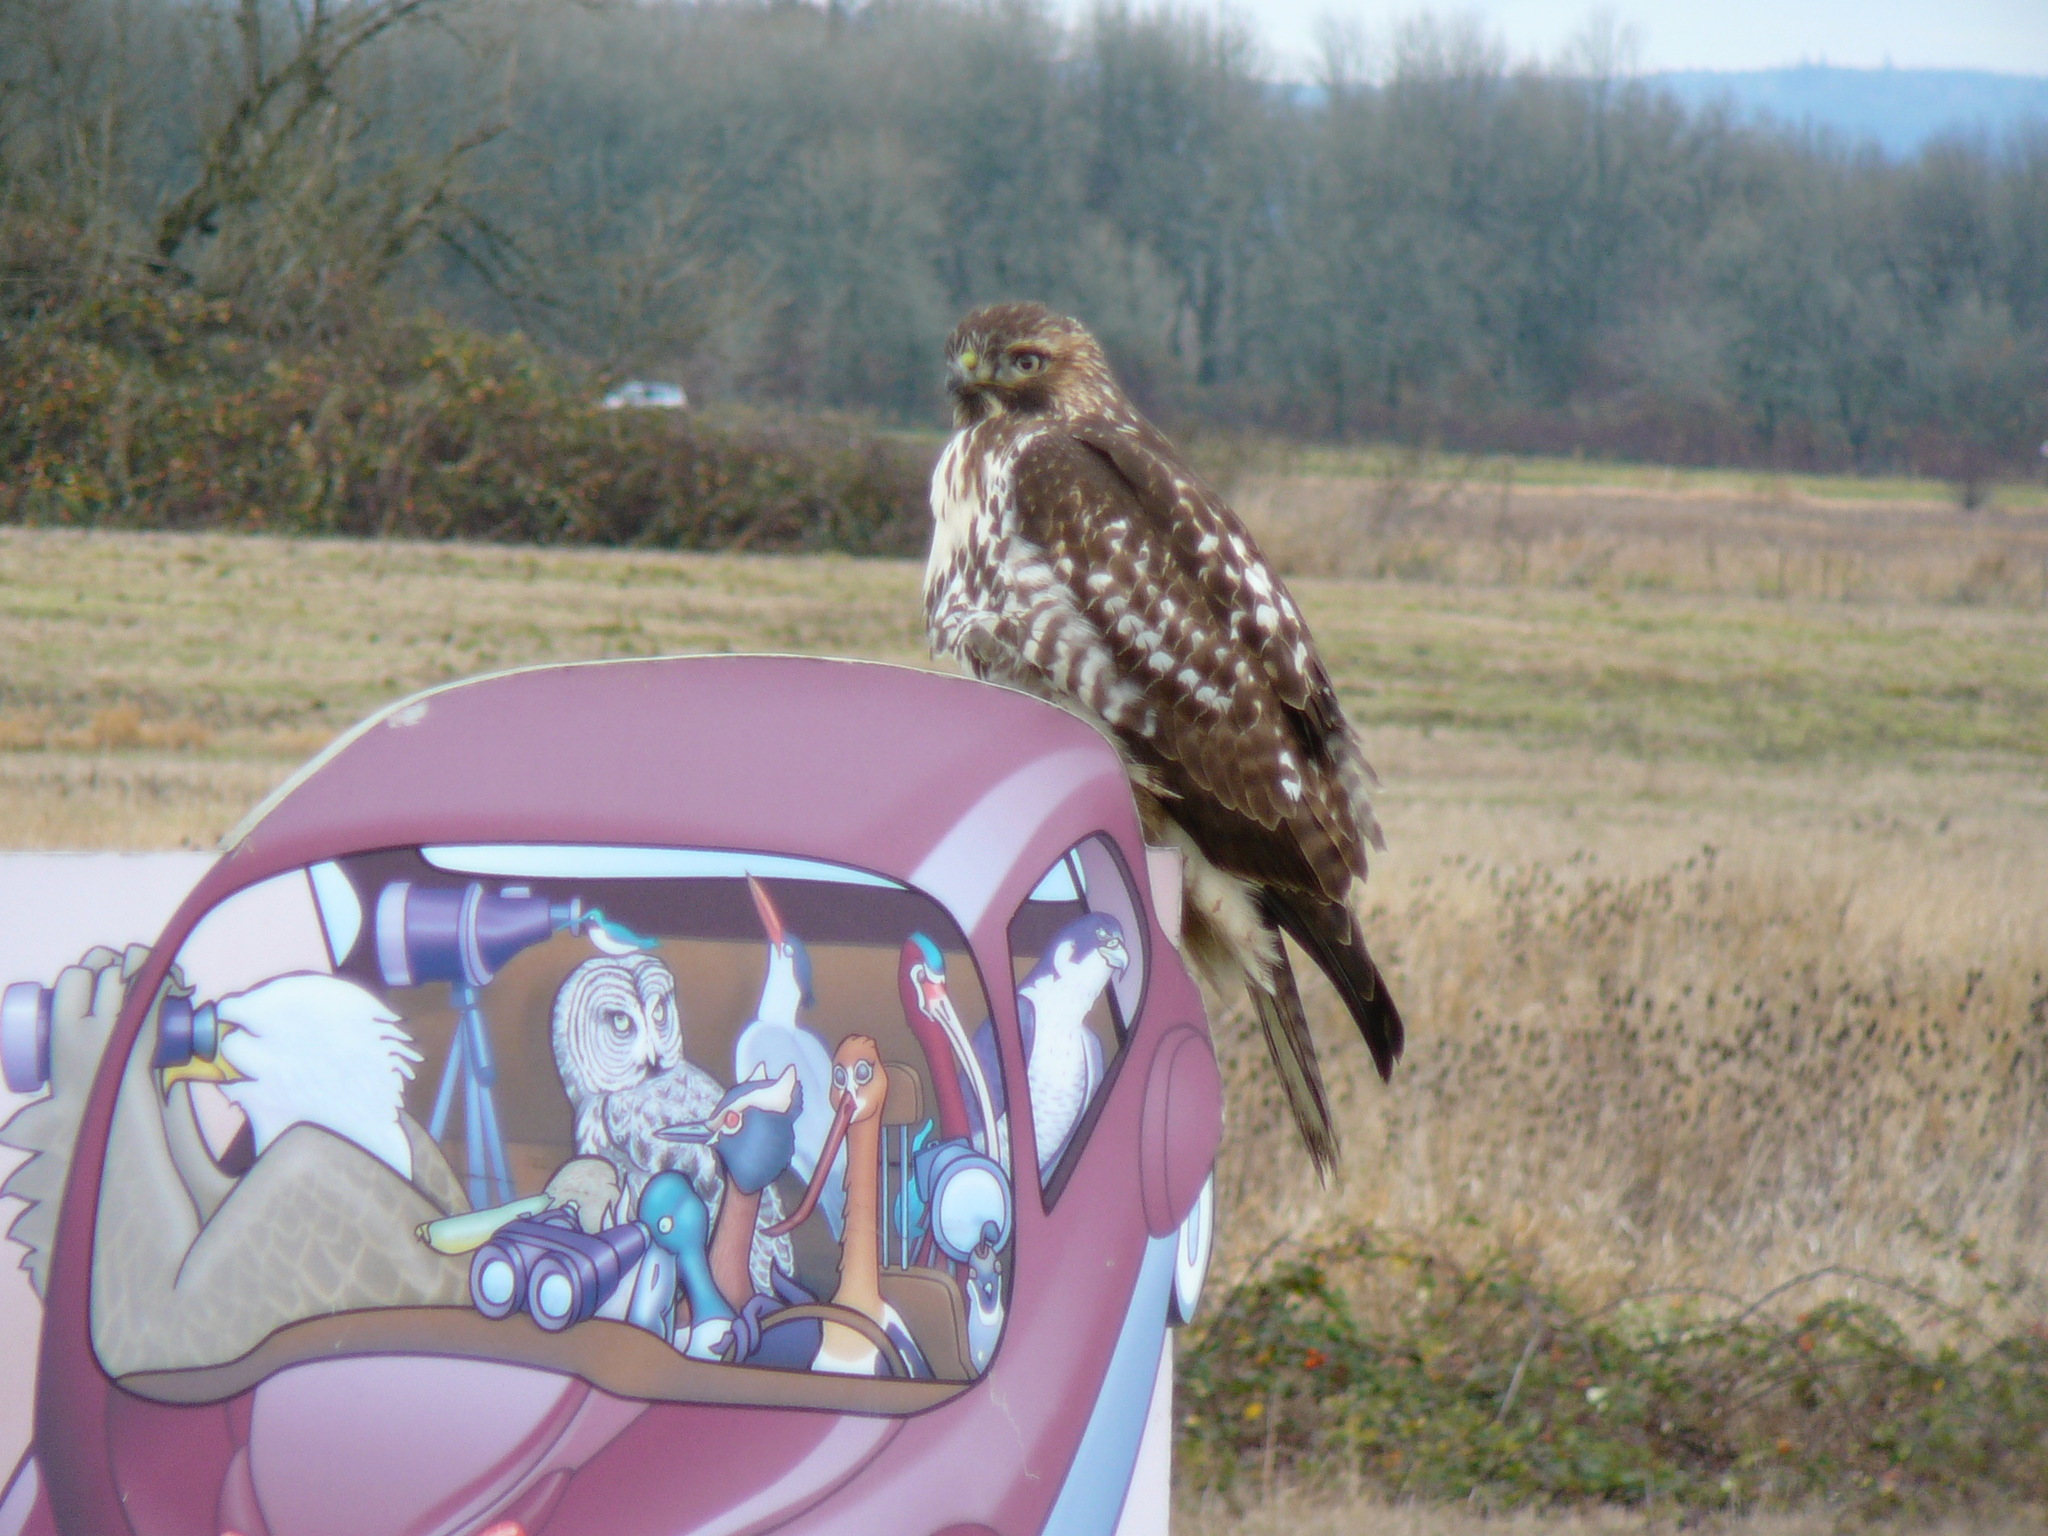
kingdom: Animalia
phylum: Chordata
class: Aves
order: Accipitriformes
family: Accipitridae
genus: Buteo
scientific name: Buteo jamaicensis
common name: Red-tailed hawk
